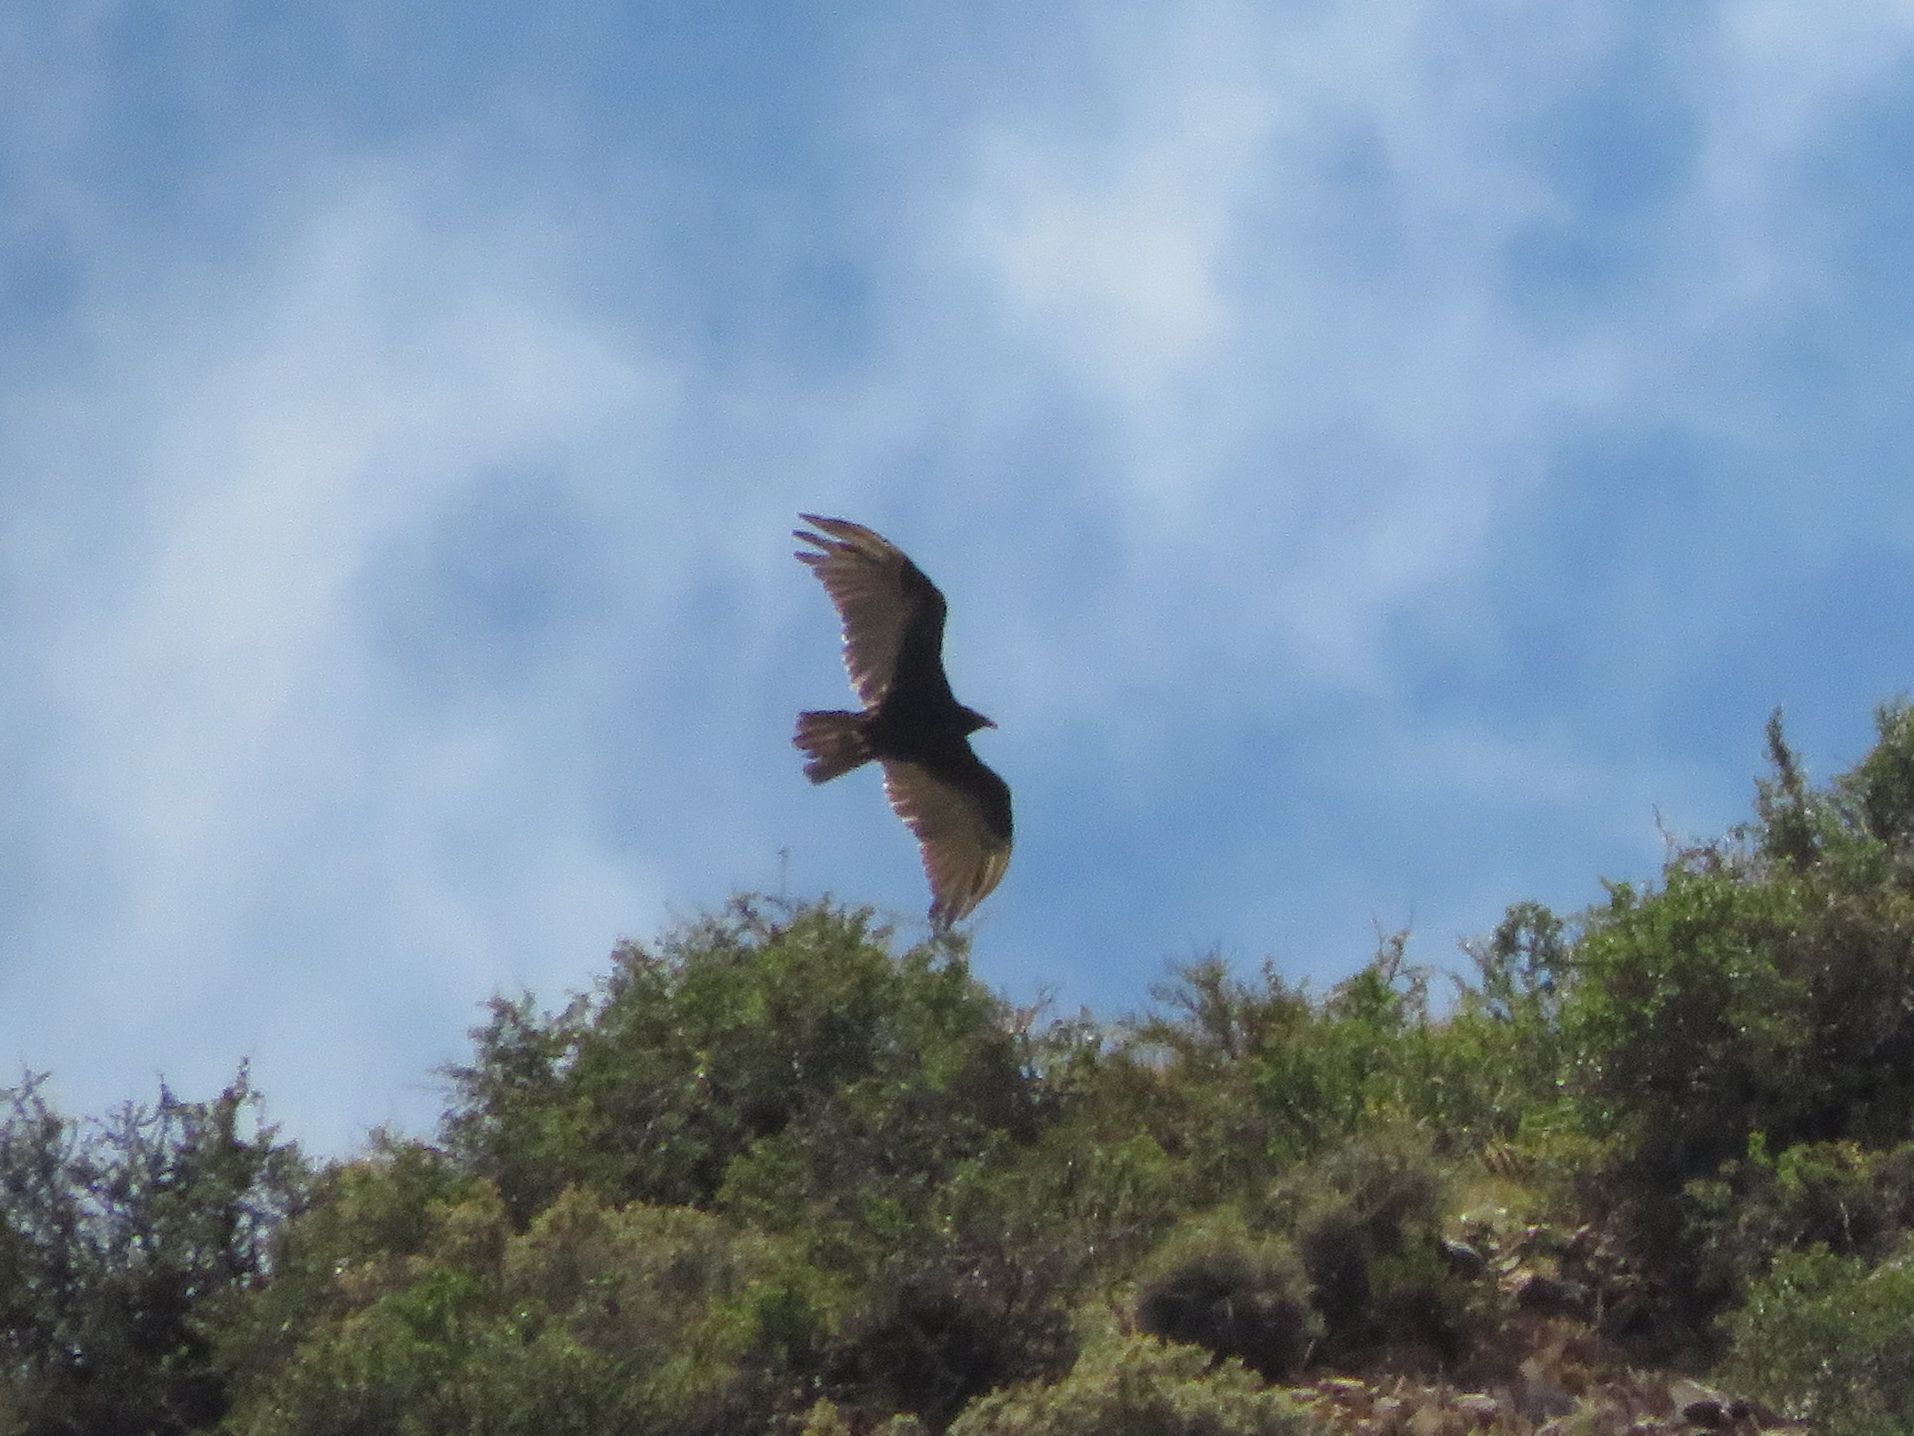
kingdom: Animalia
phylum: Chordata
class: Aves
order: Accipitriformes
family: Cathartidae
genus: Cathartes
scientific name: Cathartes aura
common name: Turkey vulture
